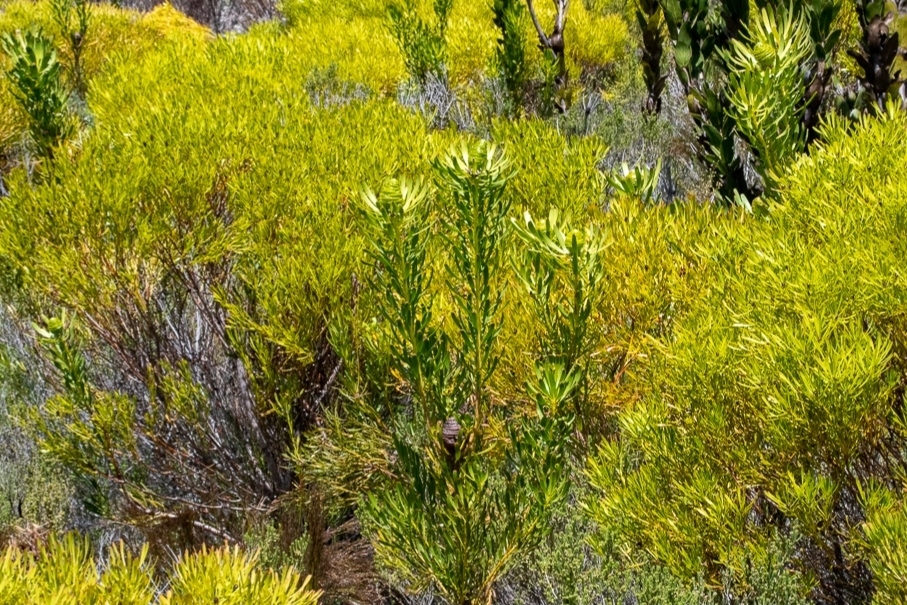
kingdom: Plantae
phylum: Tracheophyta
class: Magnoliopsida
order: Proteales
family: Proteaceae
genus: Leucadendron
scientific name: Leucadendron platyspermum
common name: Plate-seed conebush
